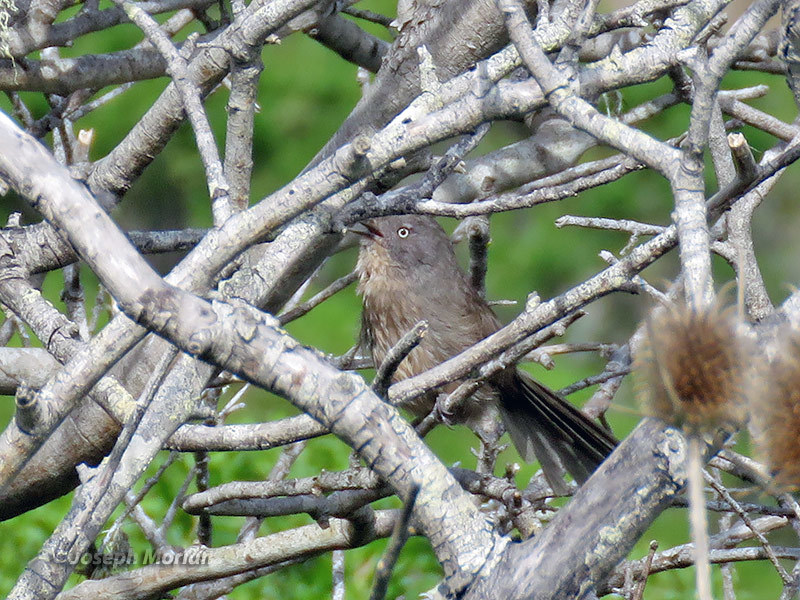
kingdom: Animalia
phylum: Chordata
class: Aves
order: Passeriformes
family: Sylviidae
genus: Chamaea
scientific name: Chamaea fasciata
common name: Wrentit
